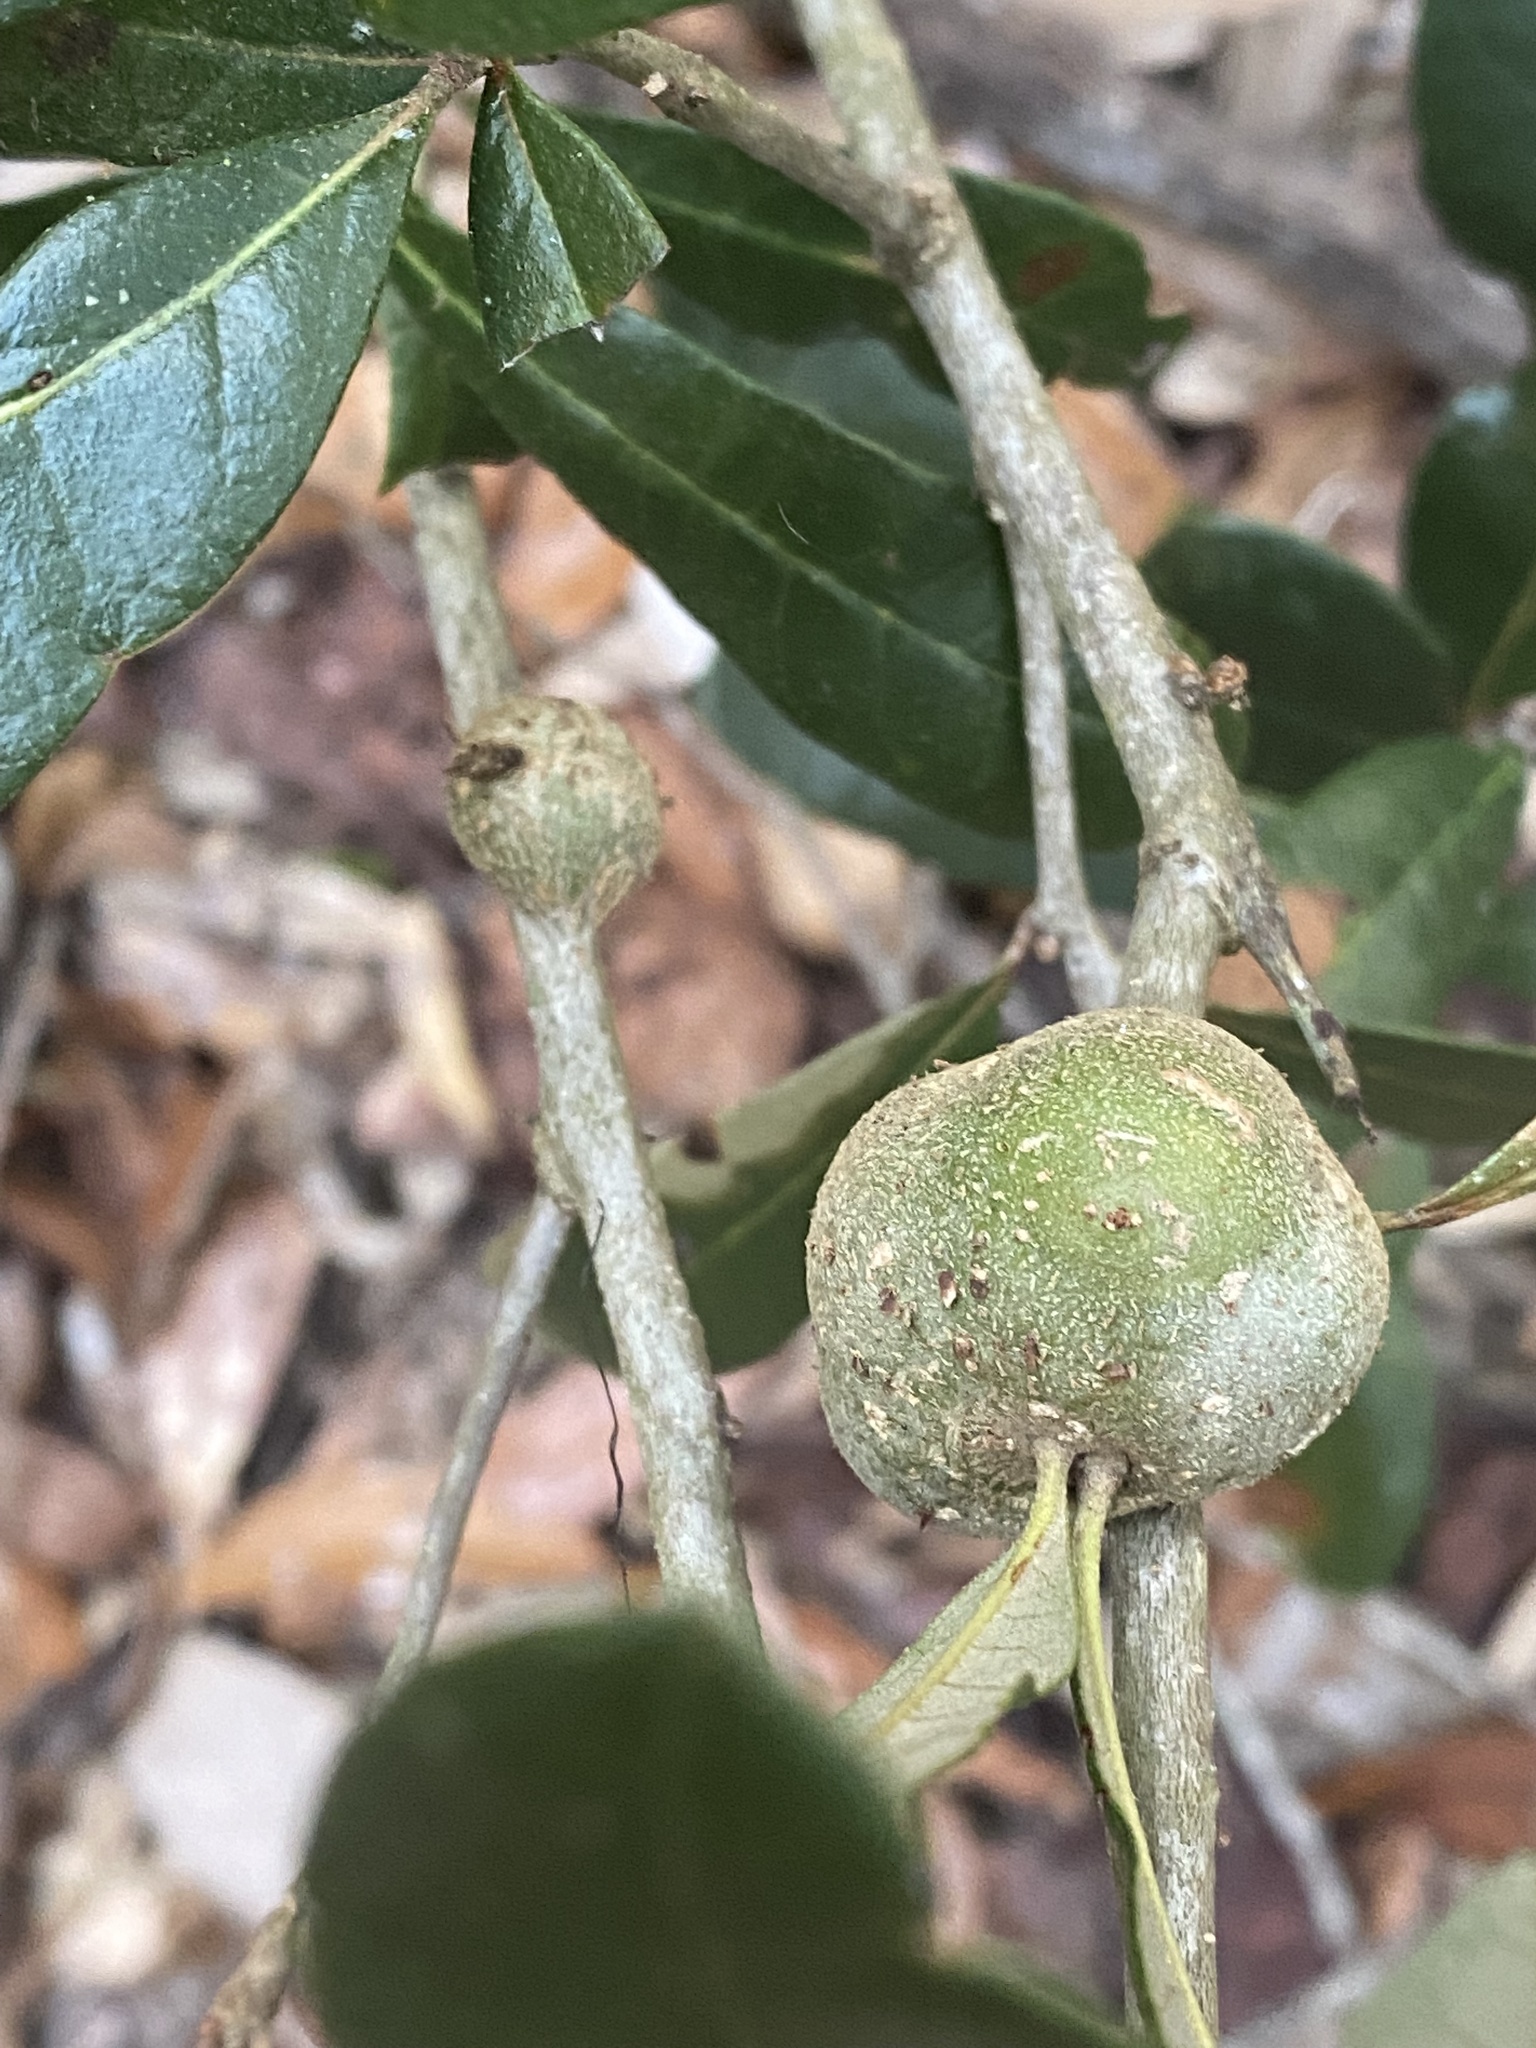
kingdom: Animalia
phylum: Arthropoda
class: Insecta
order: Hymenoptera
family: Cynipidae
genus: Callirhytis
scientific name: Callirhytis
